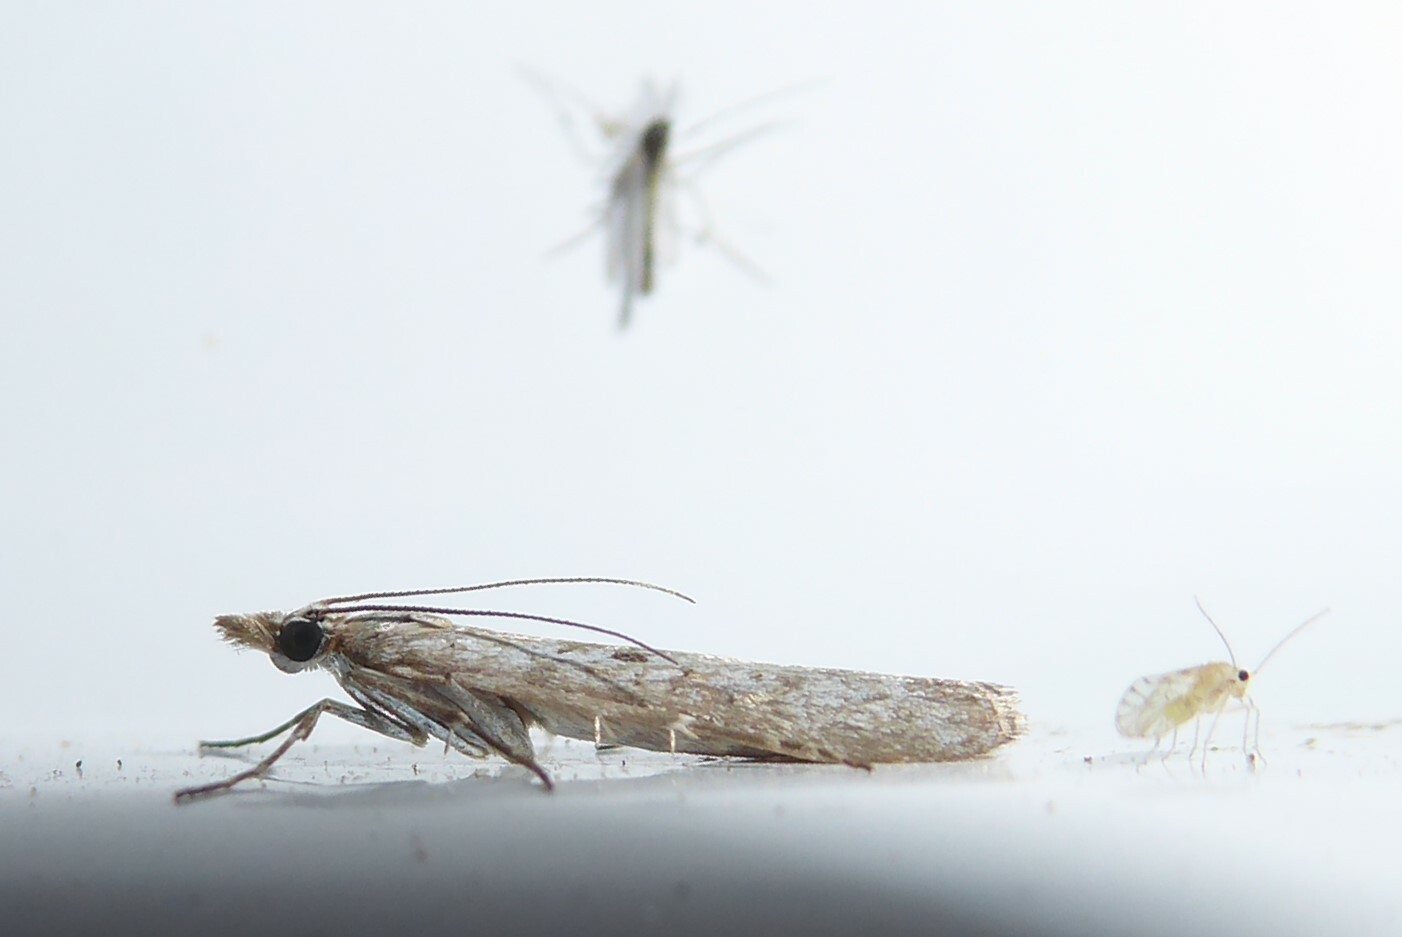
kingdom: Animalia
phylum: Arthropoda
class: Insecta
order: Lepidoptera
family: Crambidae
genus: Eudonia
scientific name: Eudonia leptalea
